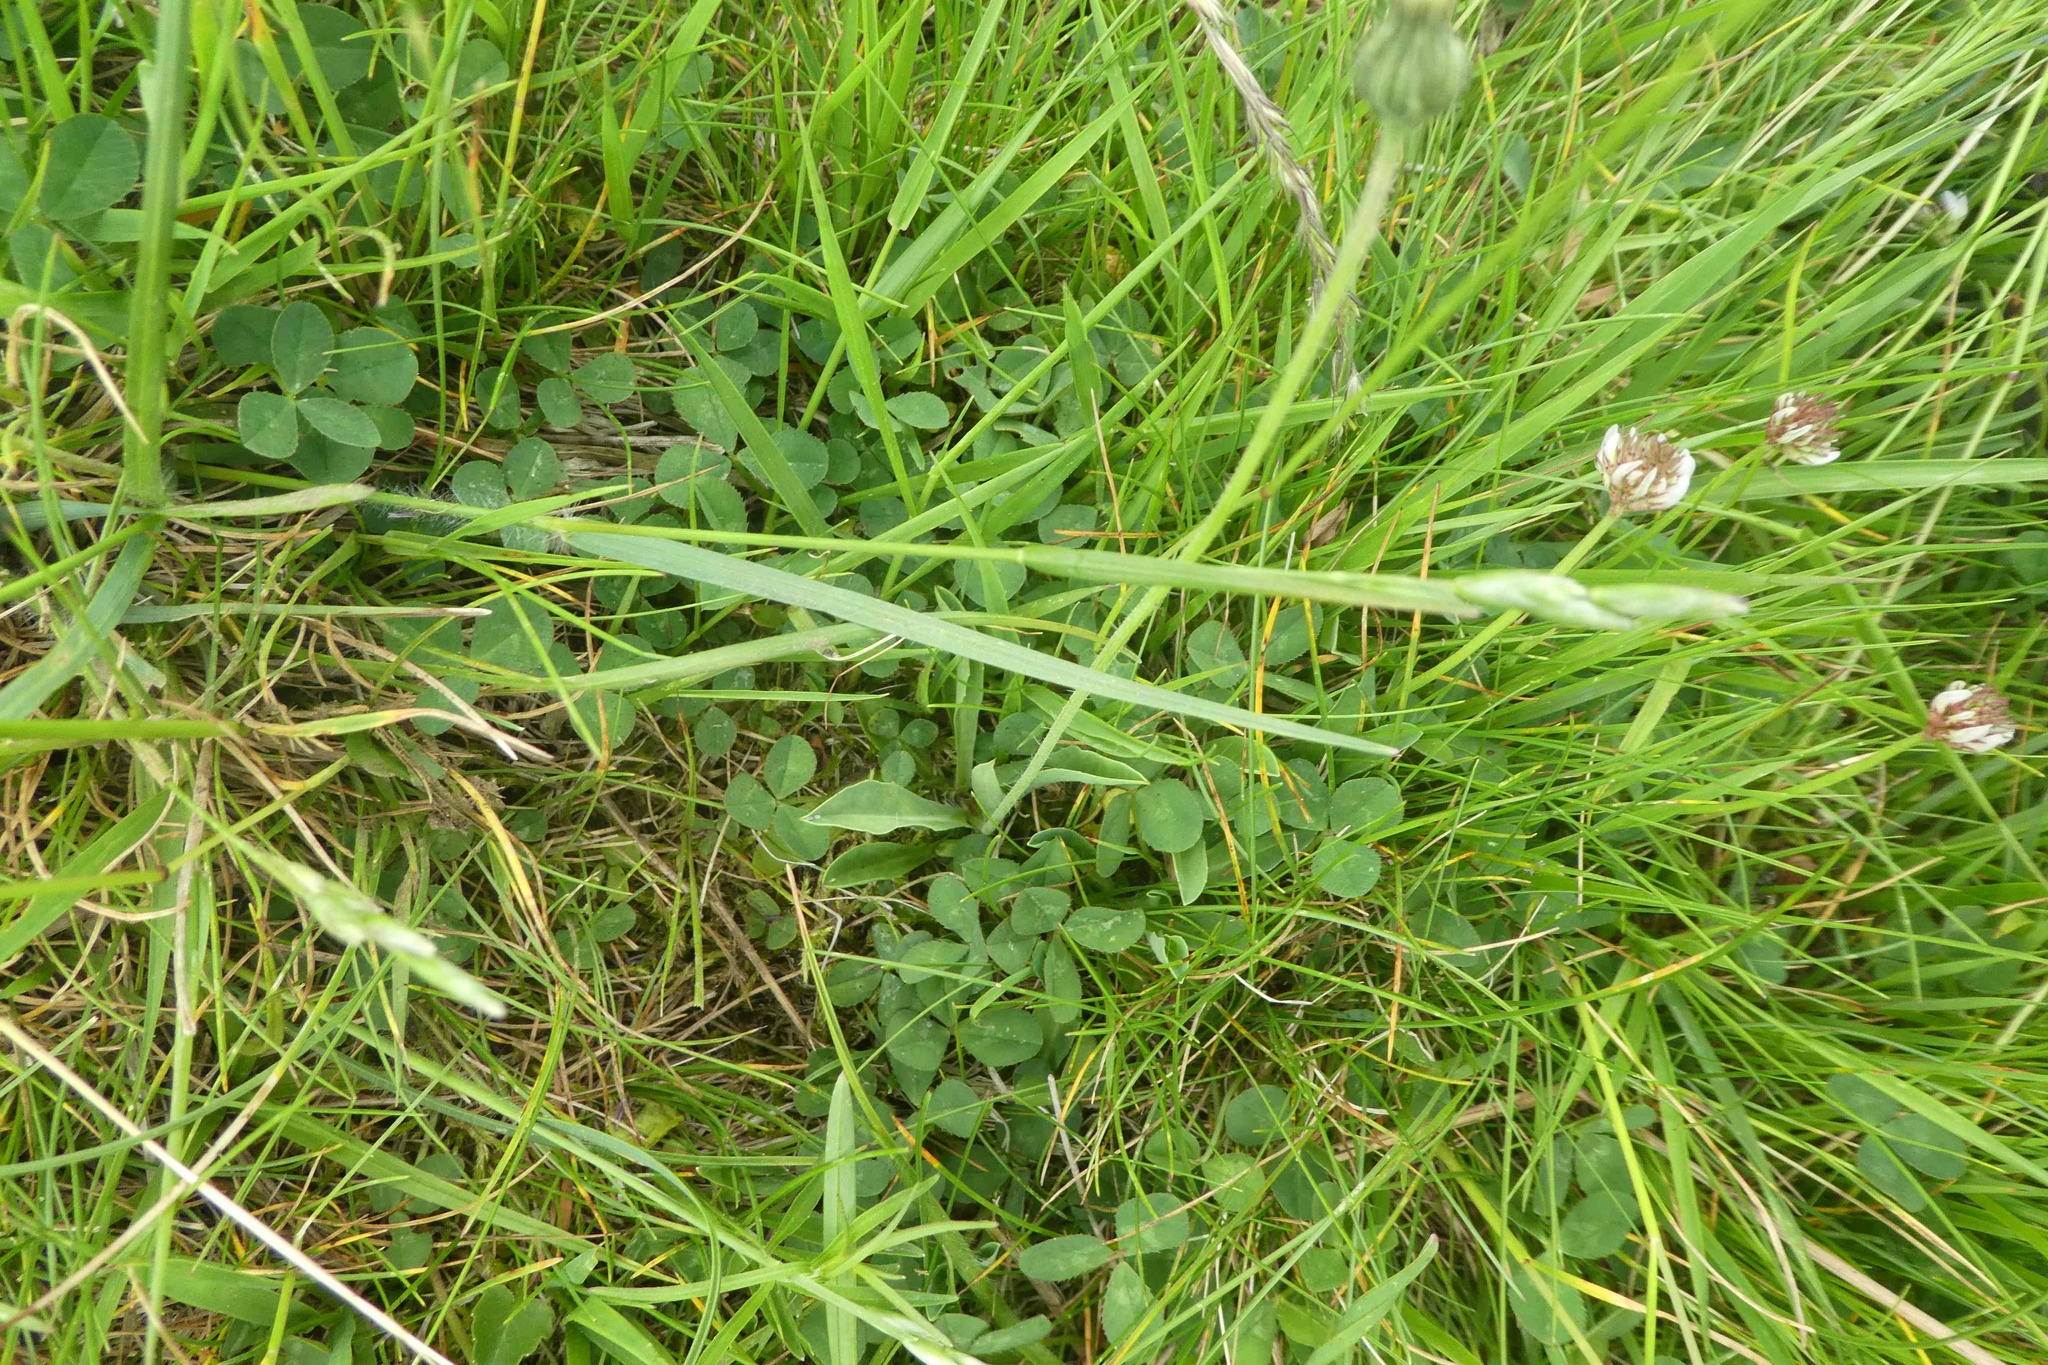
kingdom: Plantae
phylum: Tracheophyta
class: Liliopsida
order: Poales
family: Poaceae
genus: Danthonia
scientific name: Danthonia decumbens
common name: Common heathgrass
